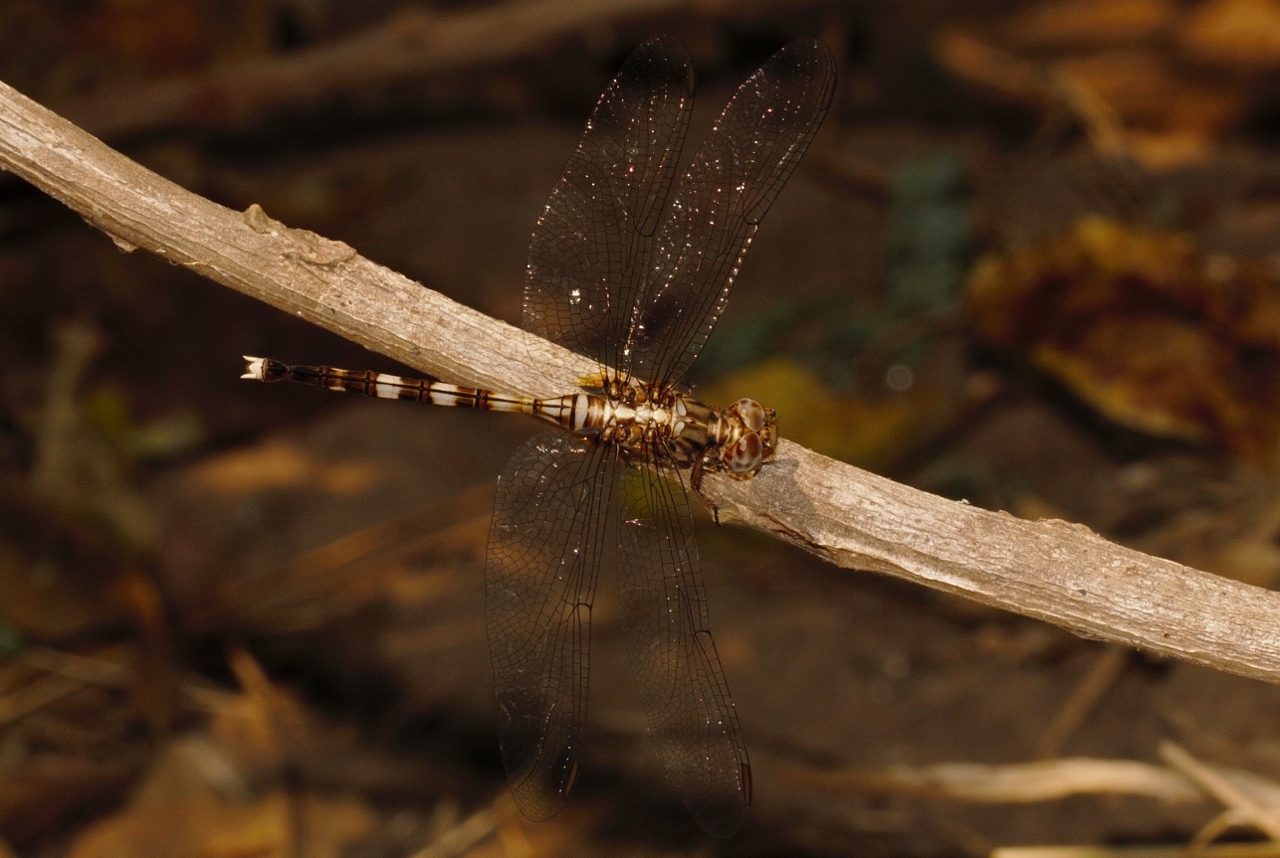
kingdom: Animalia
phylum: Arthropoda
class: Insecta
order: Odonata
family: Libellulidae
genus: Orthetrum
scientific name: Orthetrum stemmale
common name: Bold skimmer
